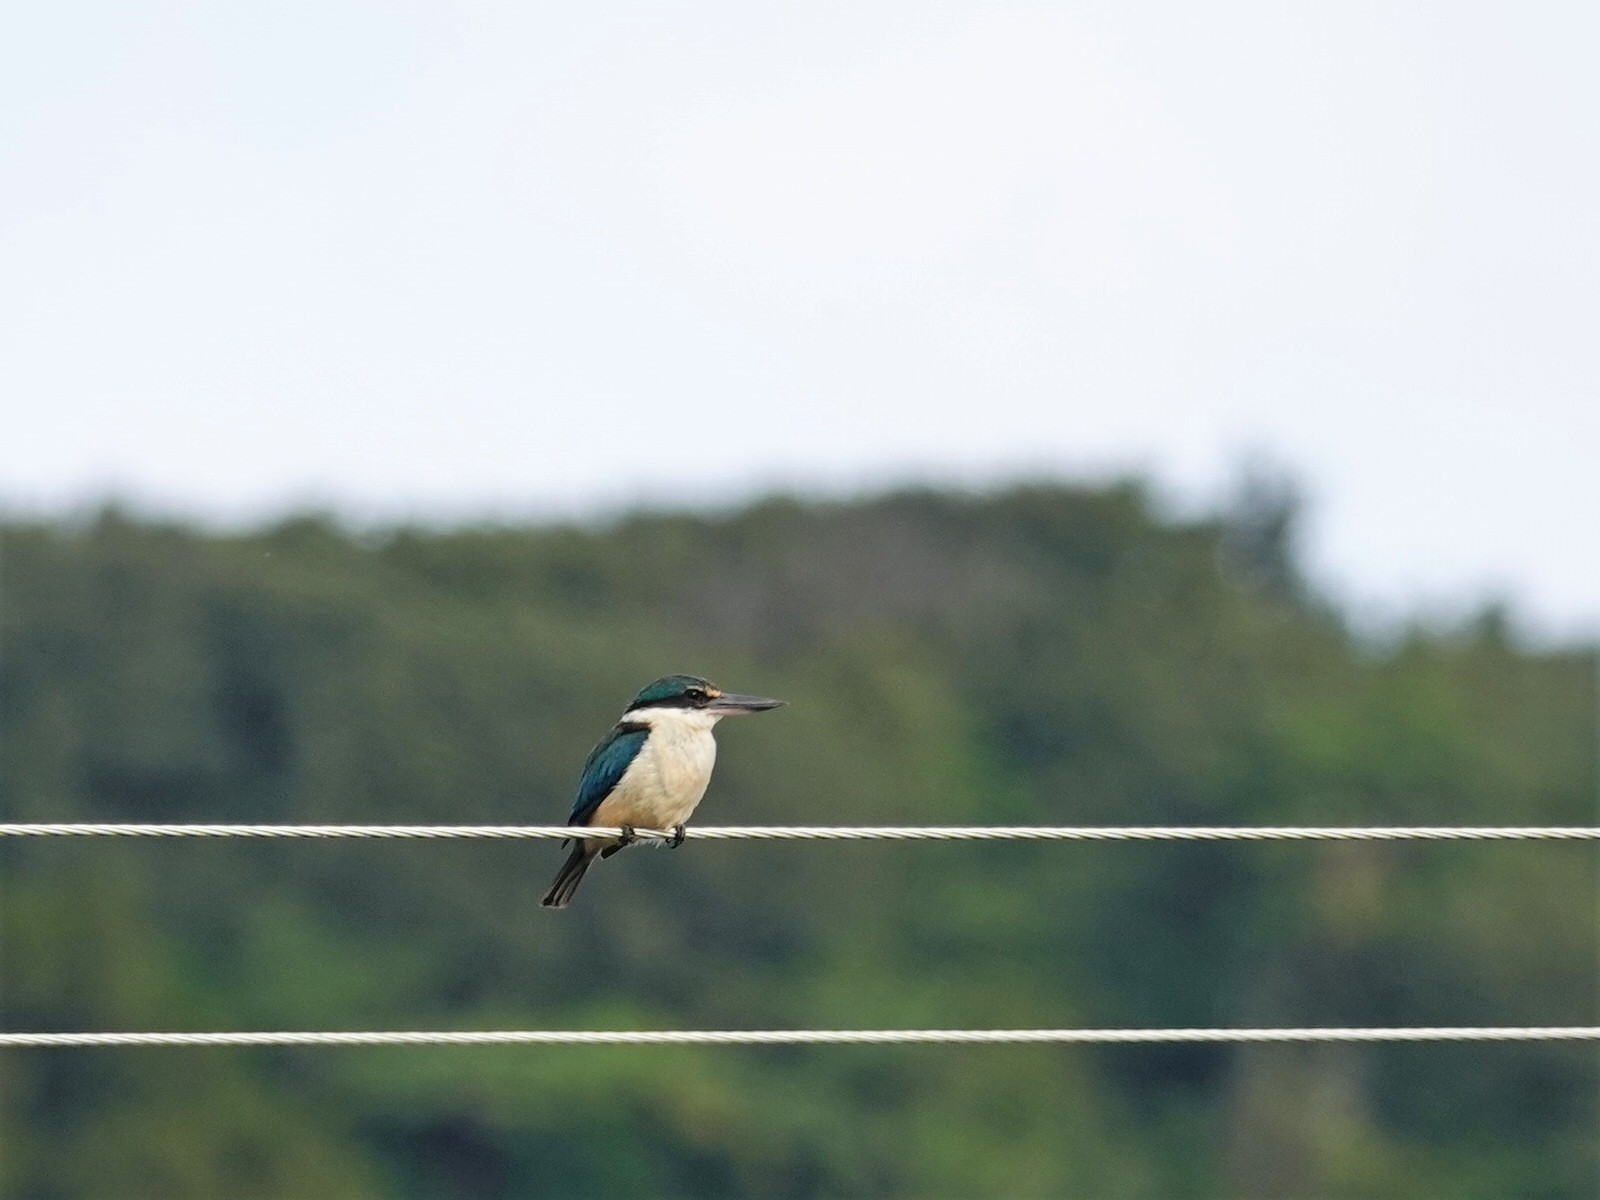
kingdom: Animalia
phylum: Chordata
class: Aves
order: Coraciiformes
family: Alcedinidae
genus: Todiramphus
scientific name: Todiramphus sanctus
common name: Sacred kingfisher
